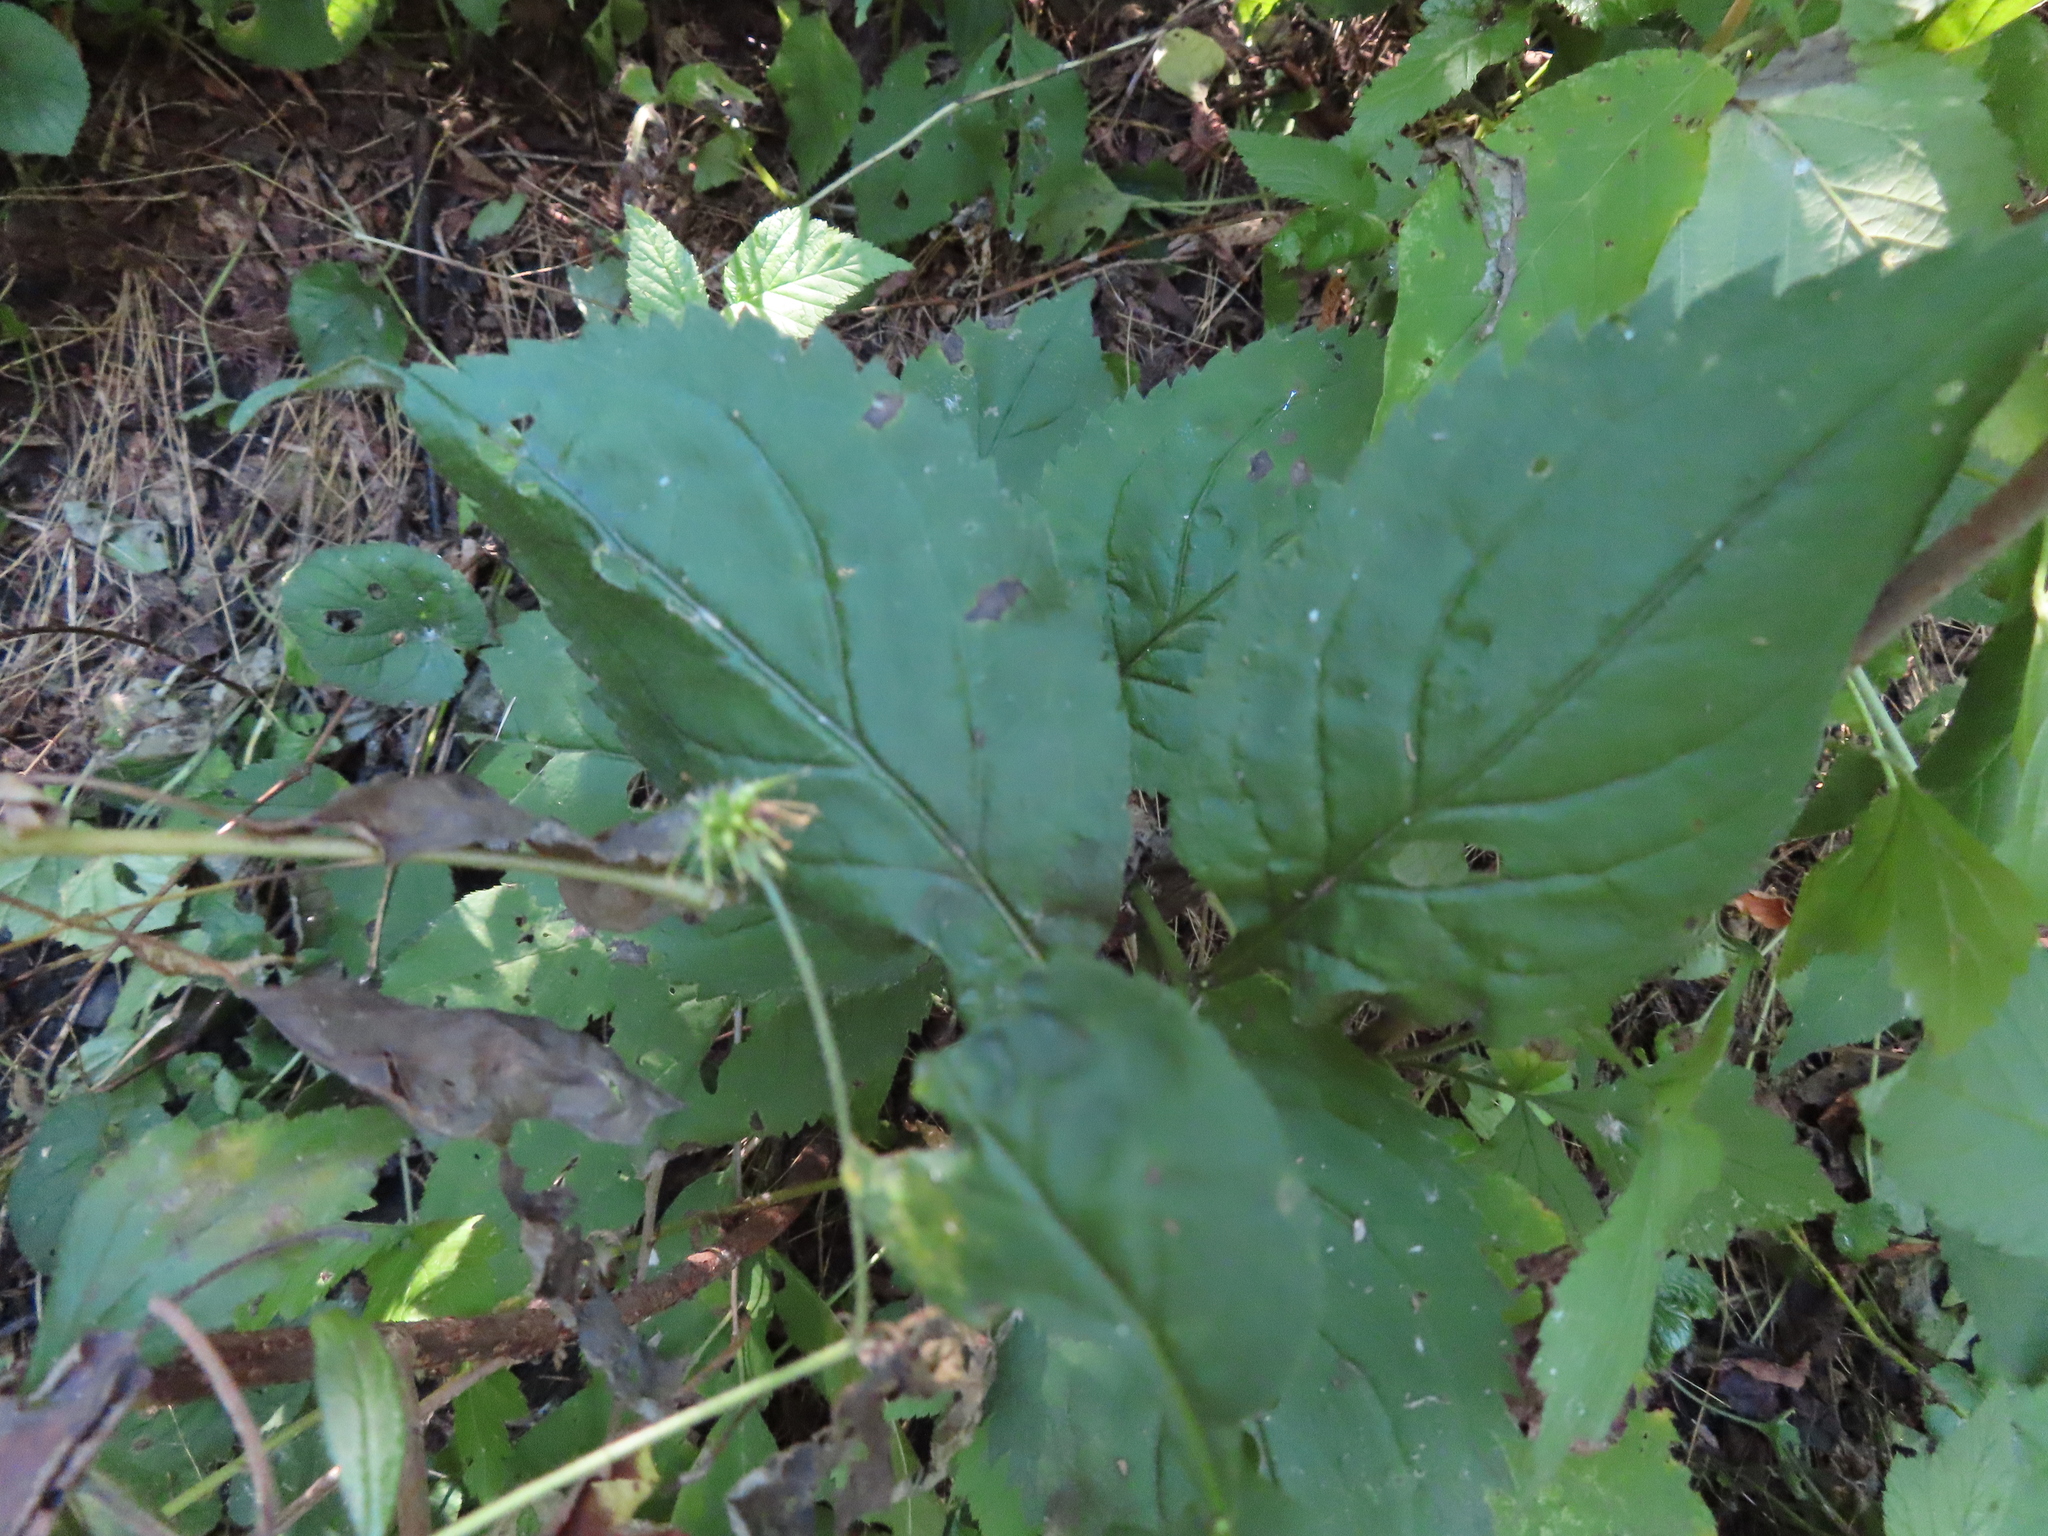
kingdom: Plantae
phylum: Tracheophyta
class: Magnoliopsida
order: Asterales
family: Asteraceae
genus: Solidago
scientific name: Solidago flexicaulis
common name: Zig-zag goldenrod
